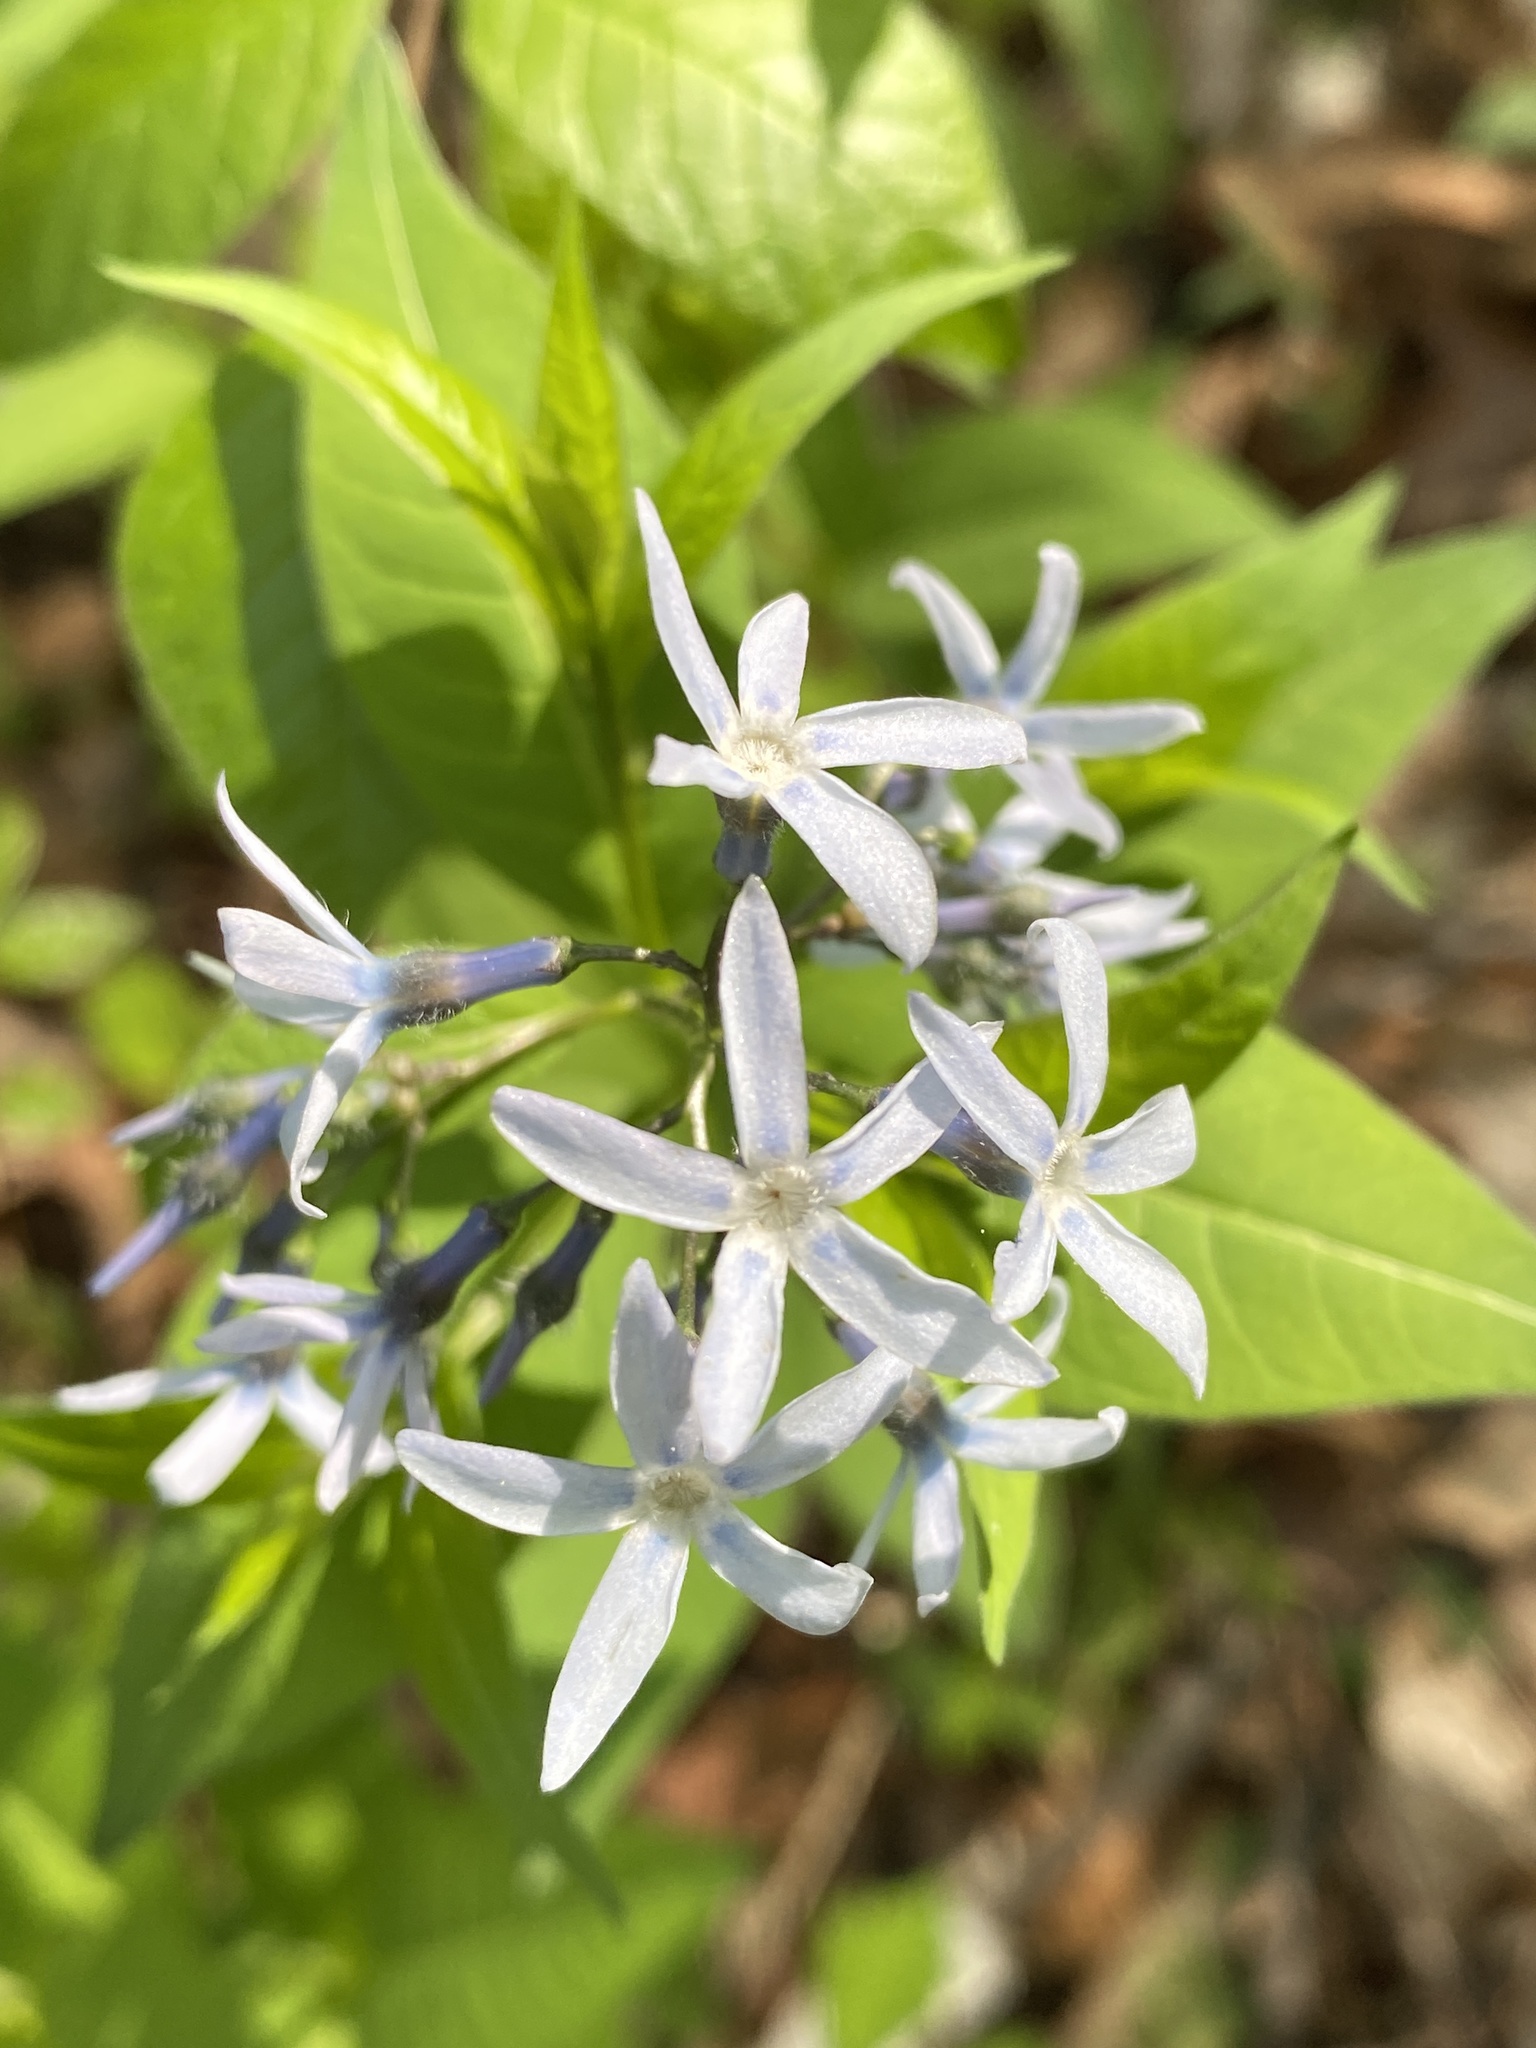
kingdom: Plantae
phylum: Tracheophyta
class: Magnoliopsida
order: Gentianales
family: Apocynaceae
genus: Amsonia
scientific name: Amsonia tabernaemontana
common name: Texas-star
